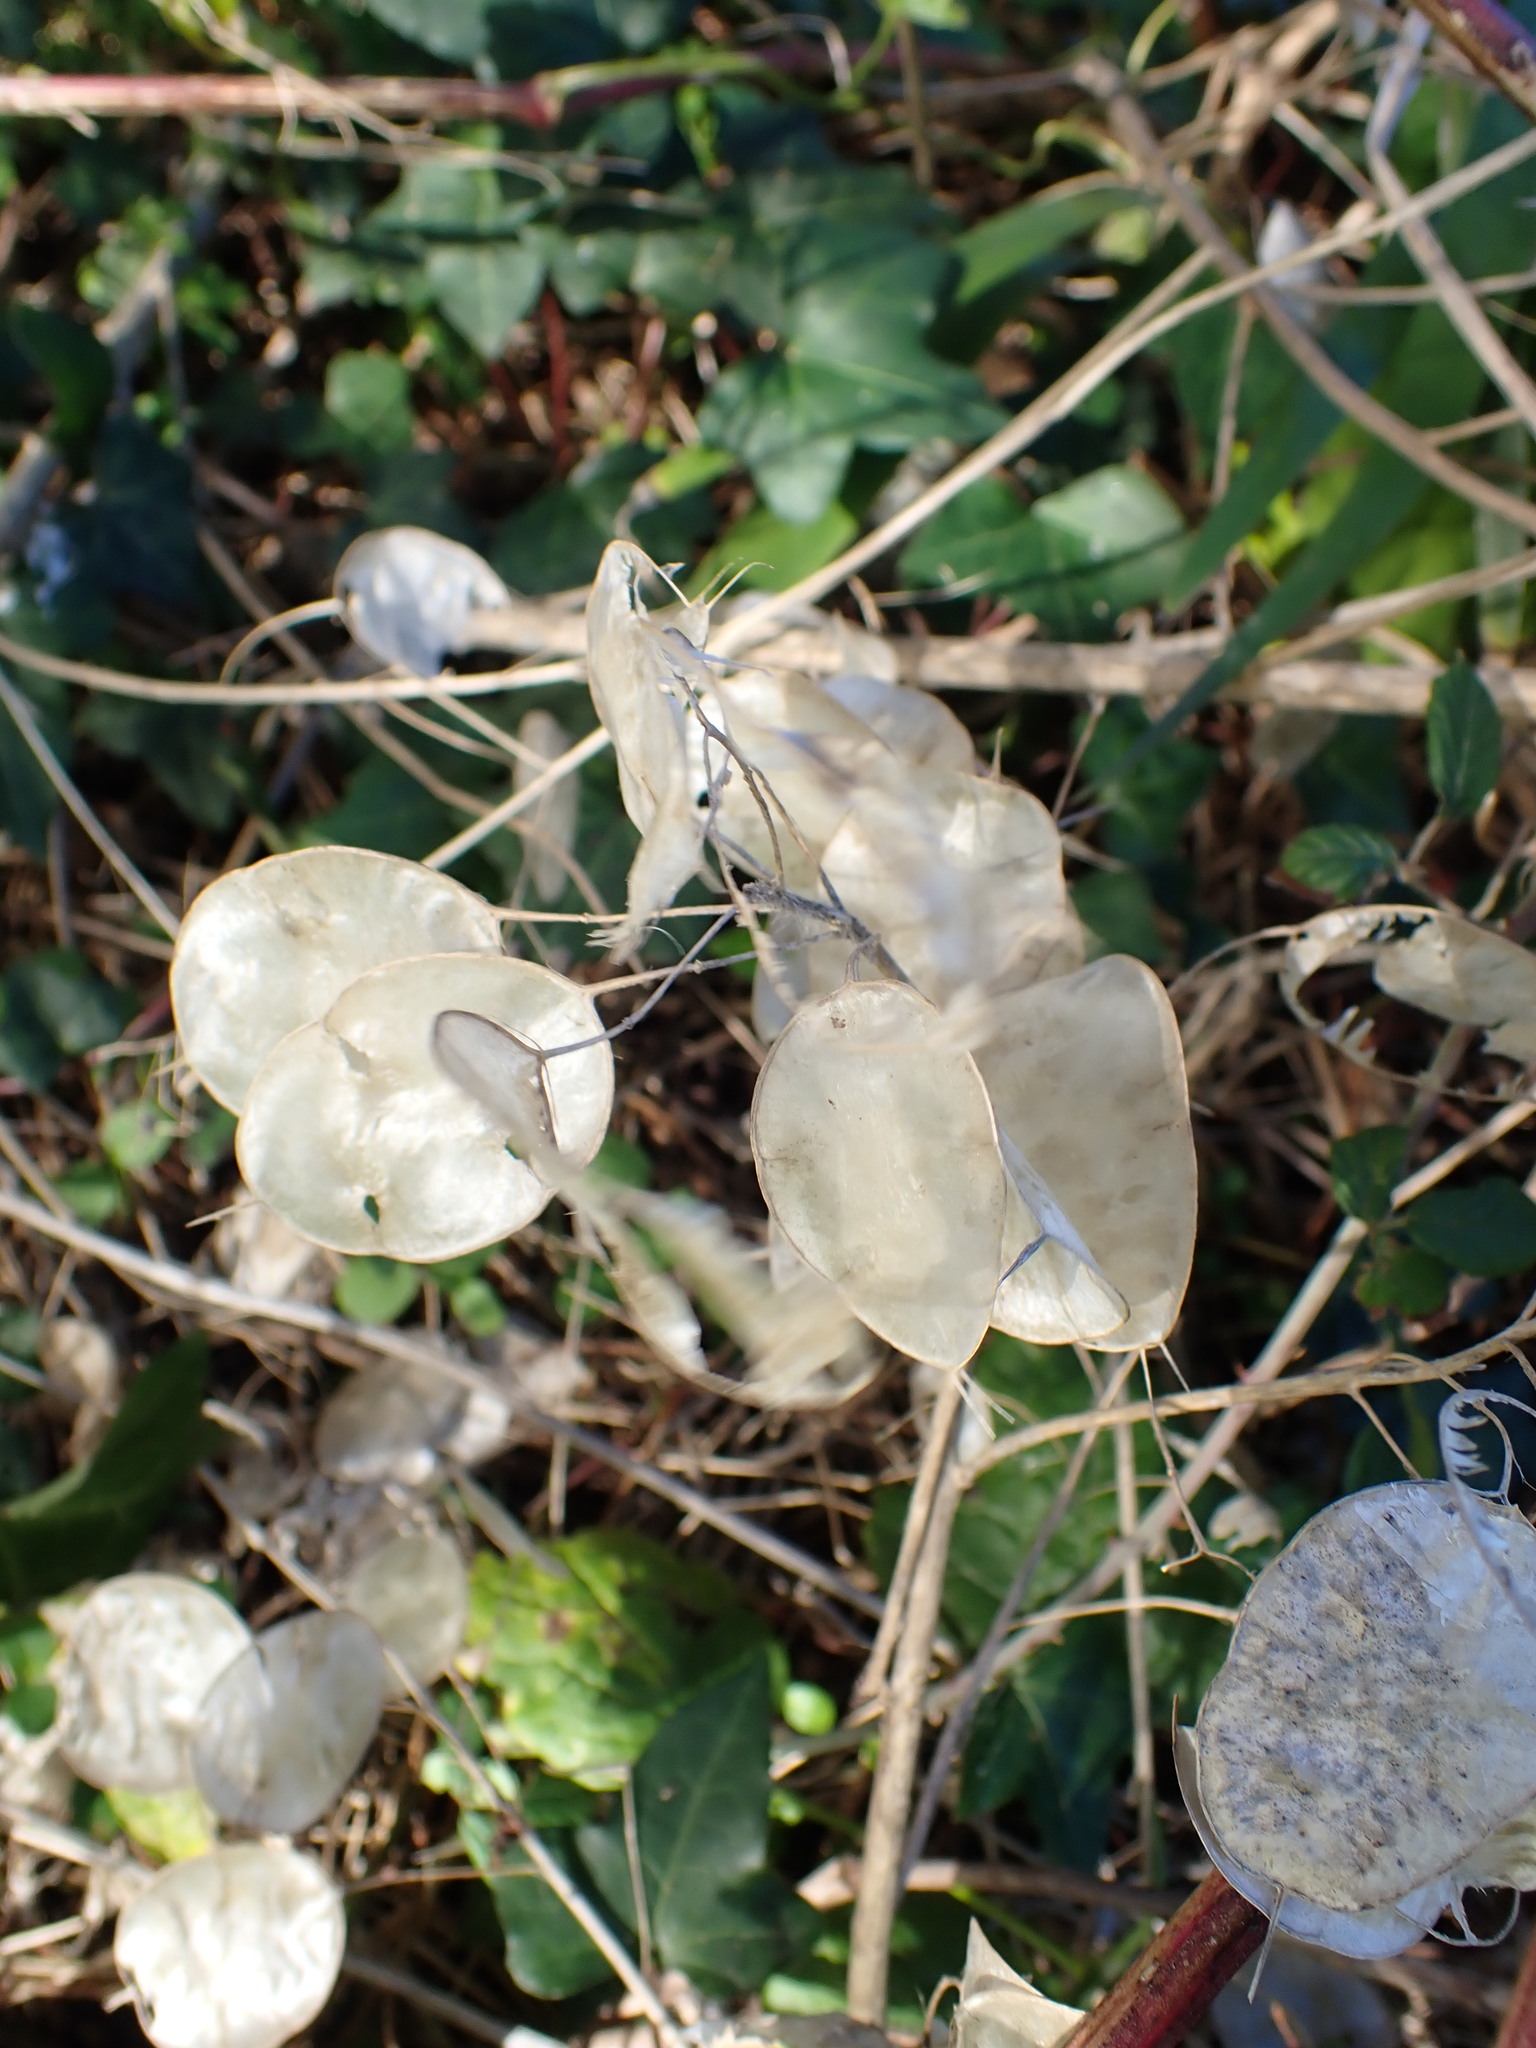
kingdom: Plantae
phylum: Tracheophyta
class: Magnoliopsida
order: Brassicales
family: Brassicaceae
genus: Lunaria
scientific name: Lunaria annua
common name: Honesty
